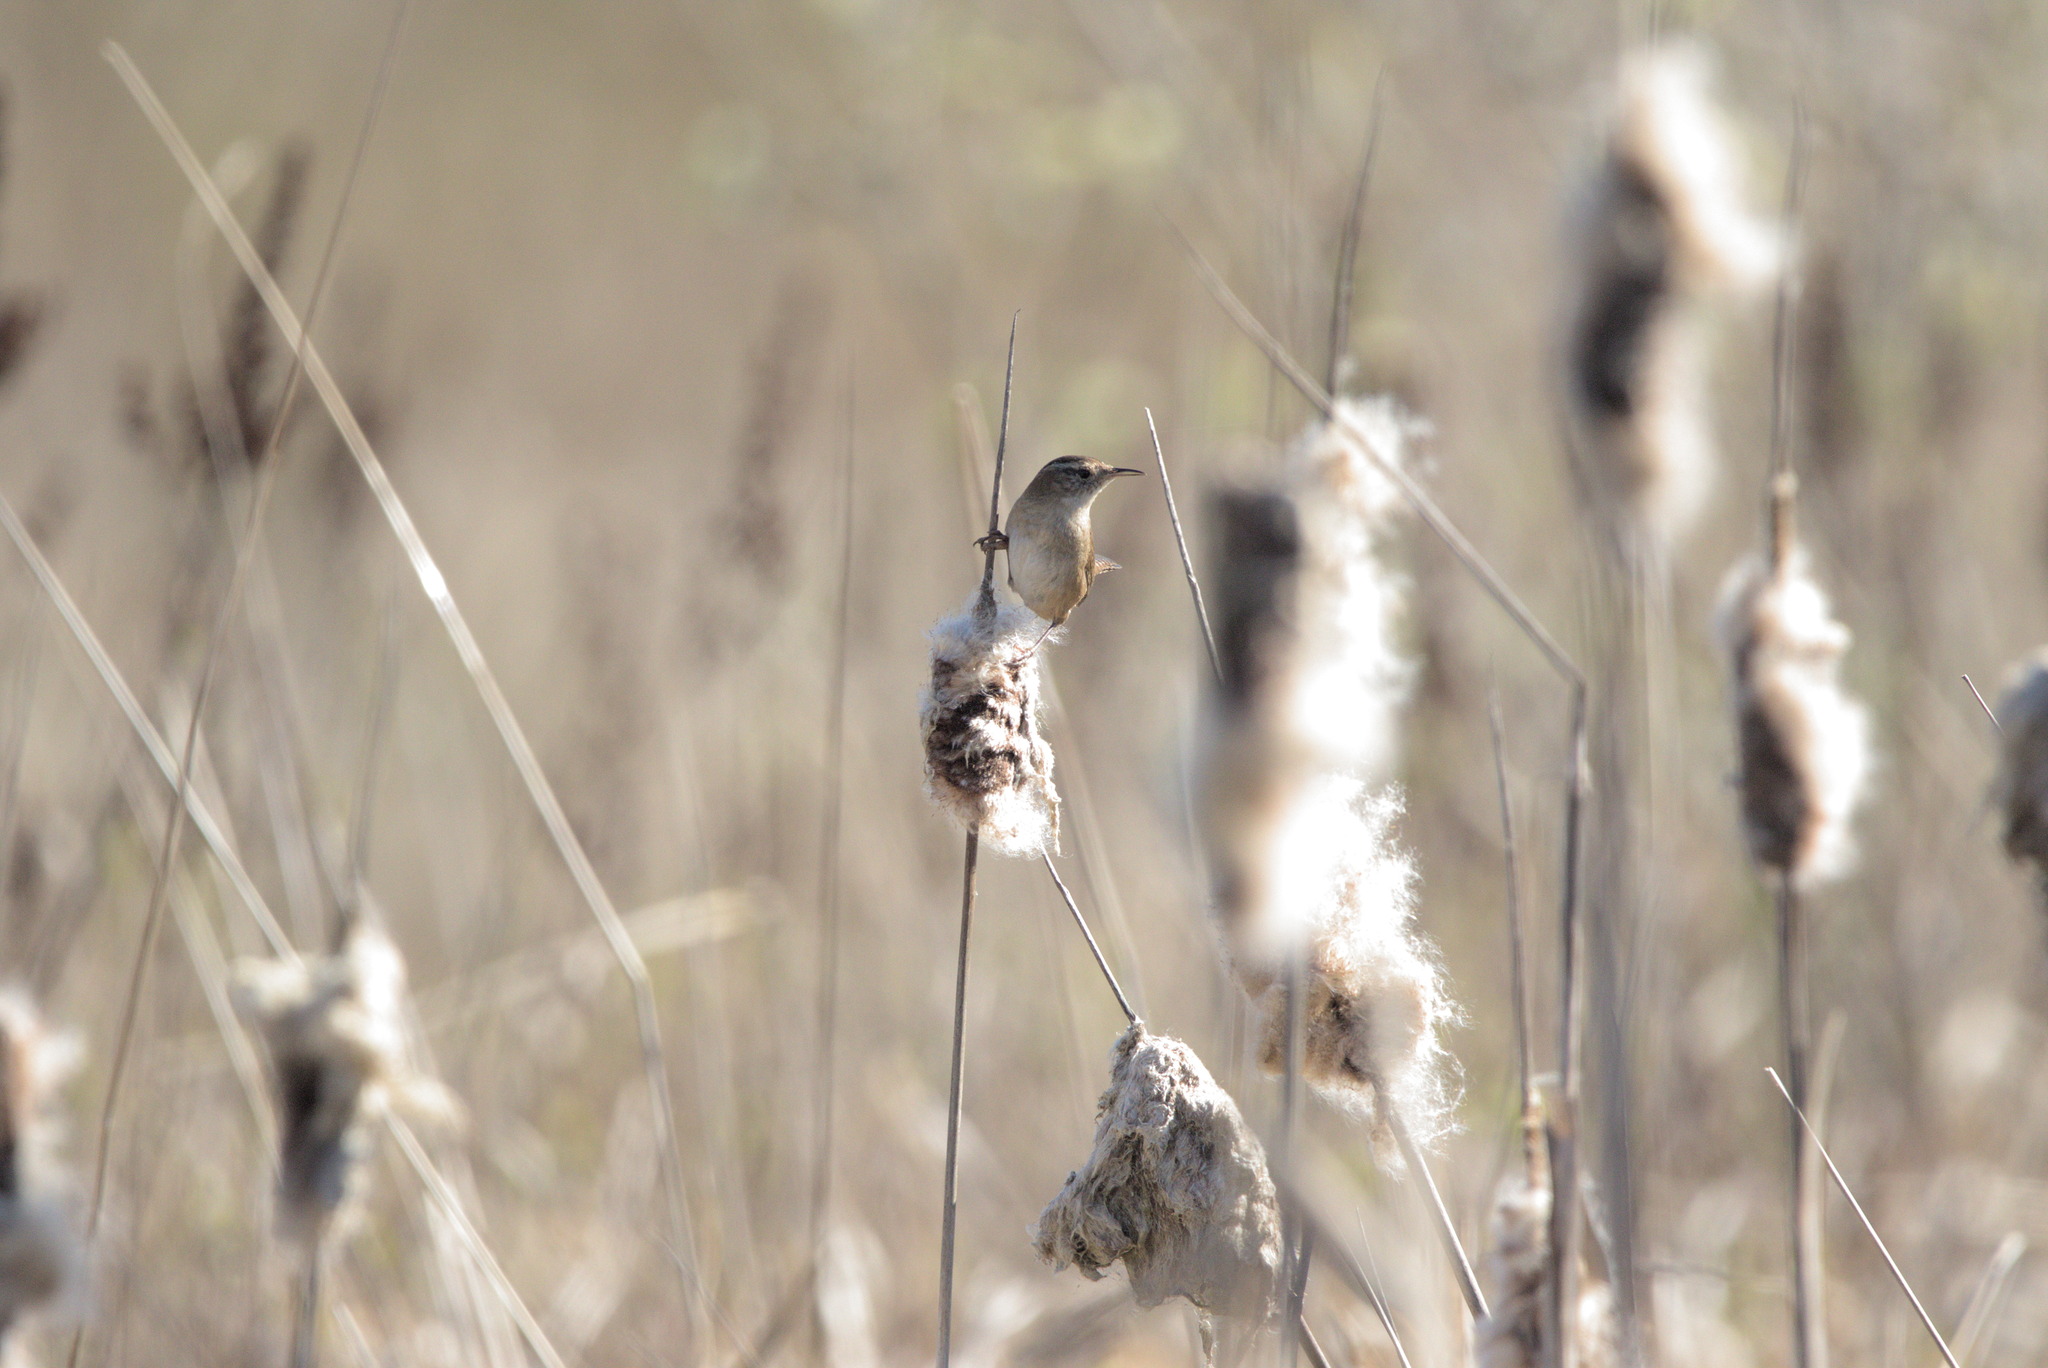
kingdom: Animalia
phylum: Chordata
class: Aves
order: Passeriformes
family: Troglodytidae
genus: Cistothorus
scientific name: Cistothorus palustris
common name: Marsh wren
